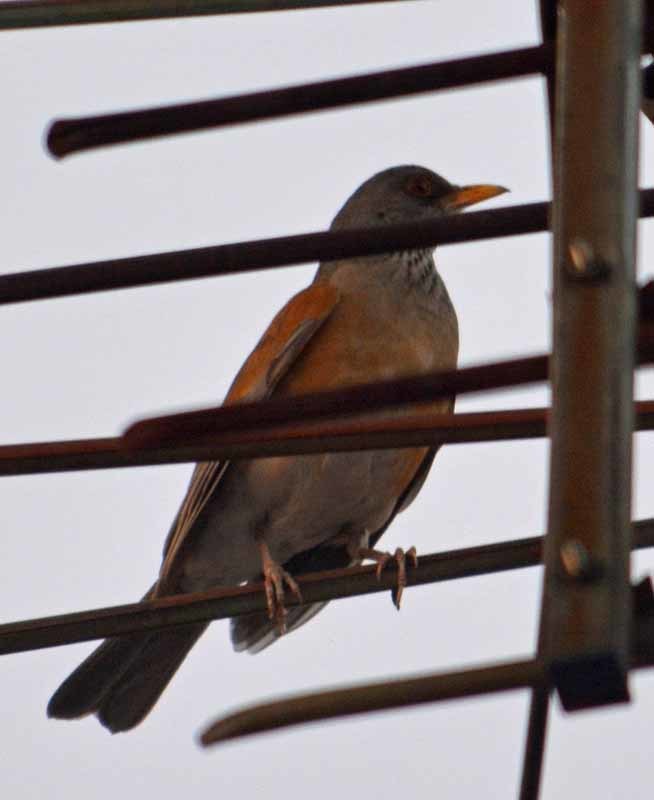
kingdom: Animalia
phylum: Chordata
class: Aves
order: Passeriformes
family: Turdidae
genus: Turdus
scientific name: Turdus rufopalliatus
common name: Rufous-backed robin
